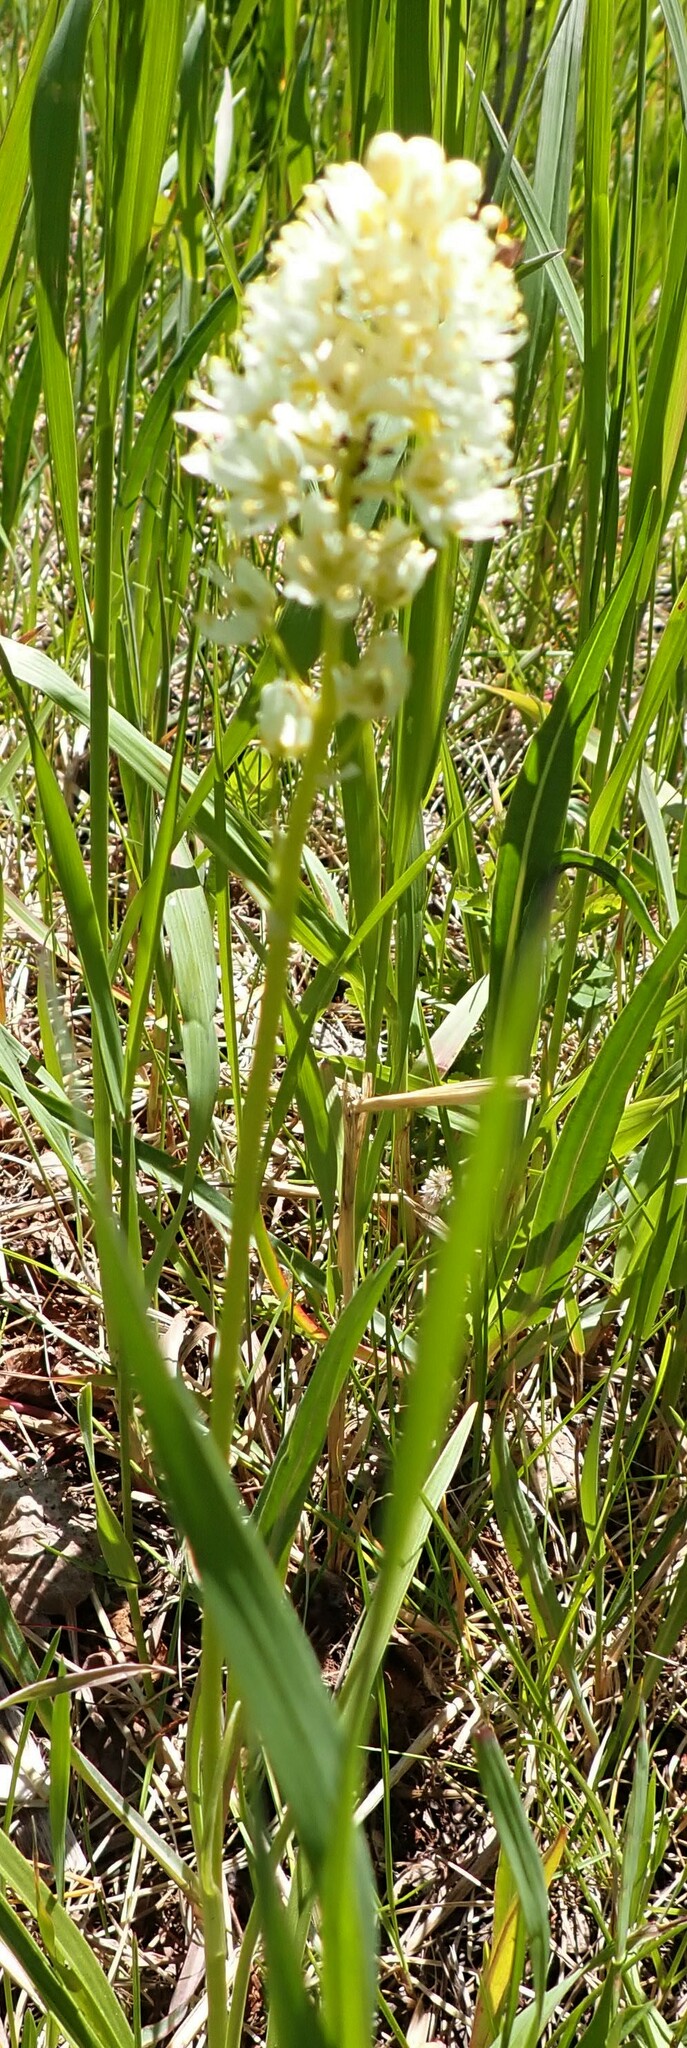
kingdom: Plantae
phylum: Tracheophyta
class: Liliopsida
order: Liliales
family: Melanthiaceae
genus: Toxicoscordion
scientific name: Toxicoscordion venenosum
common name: Meadow death camas
